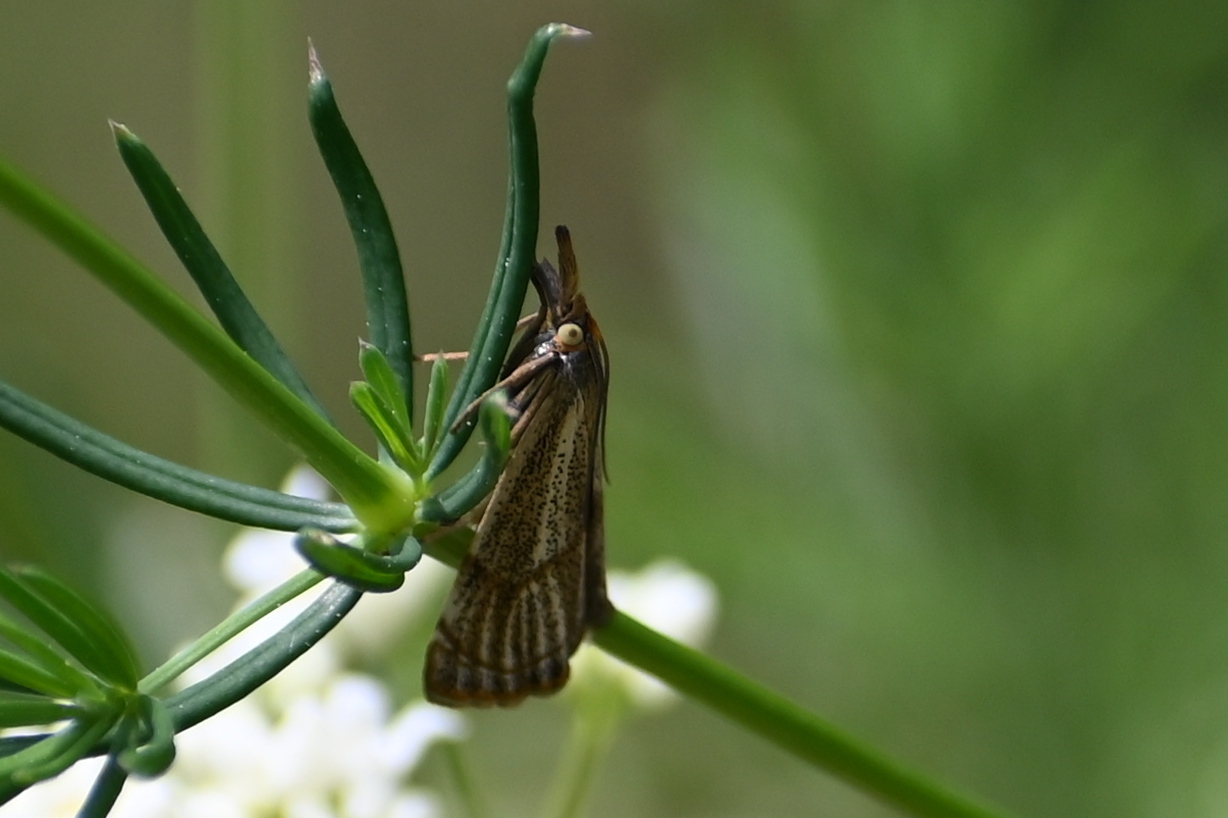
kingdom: Animalia
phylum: Arthropoda
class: Insecta
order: Lepidoptera
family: Crambidae
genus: Thisanotia
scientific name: Thisanotia chrysonuchella
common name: Powdered grass-veneer
